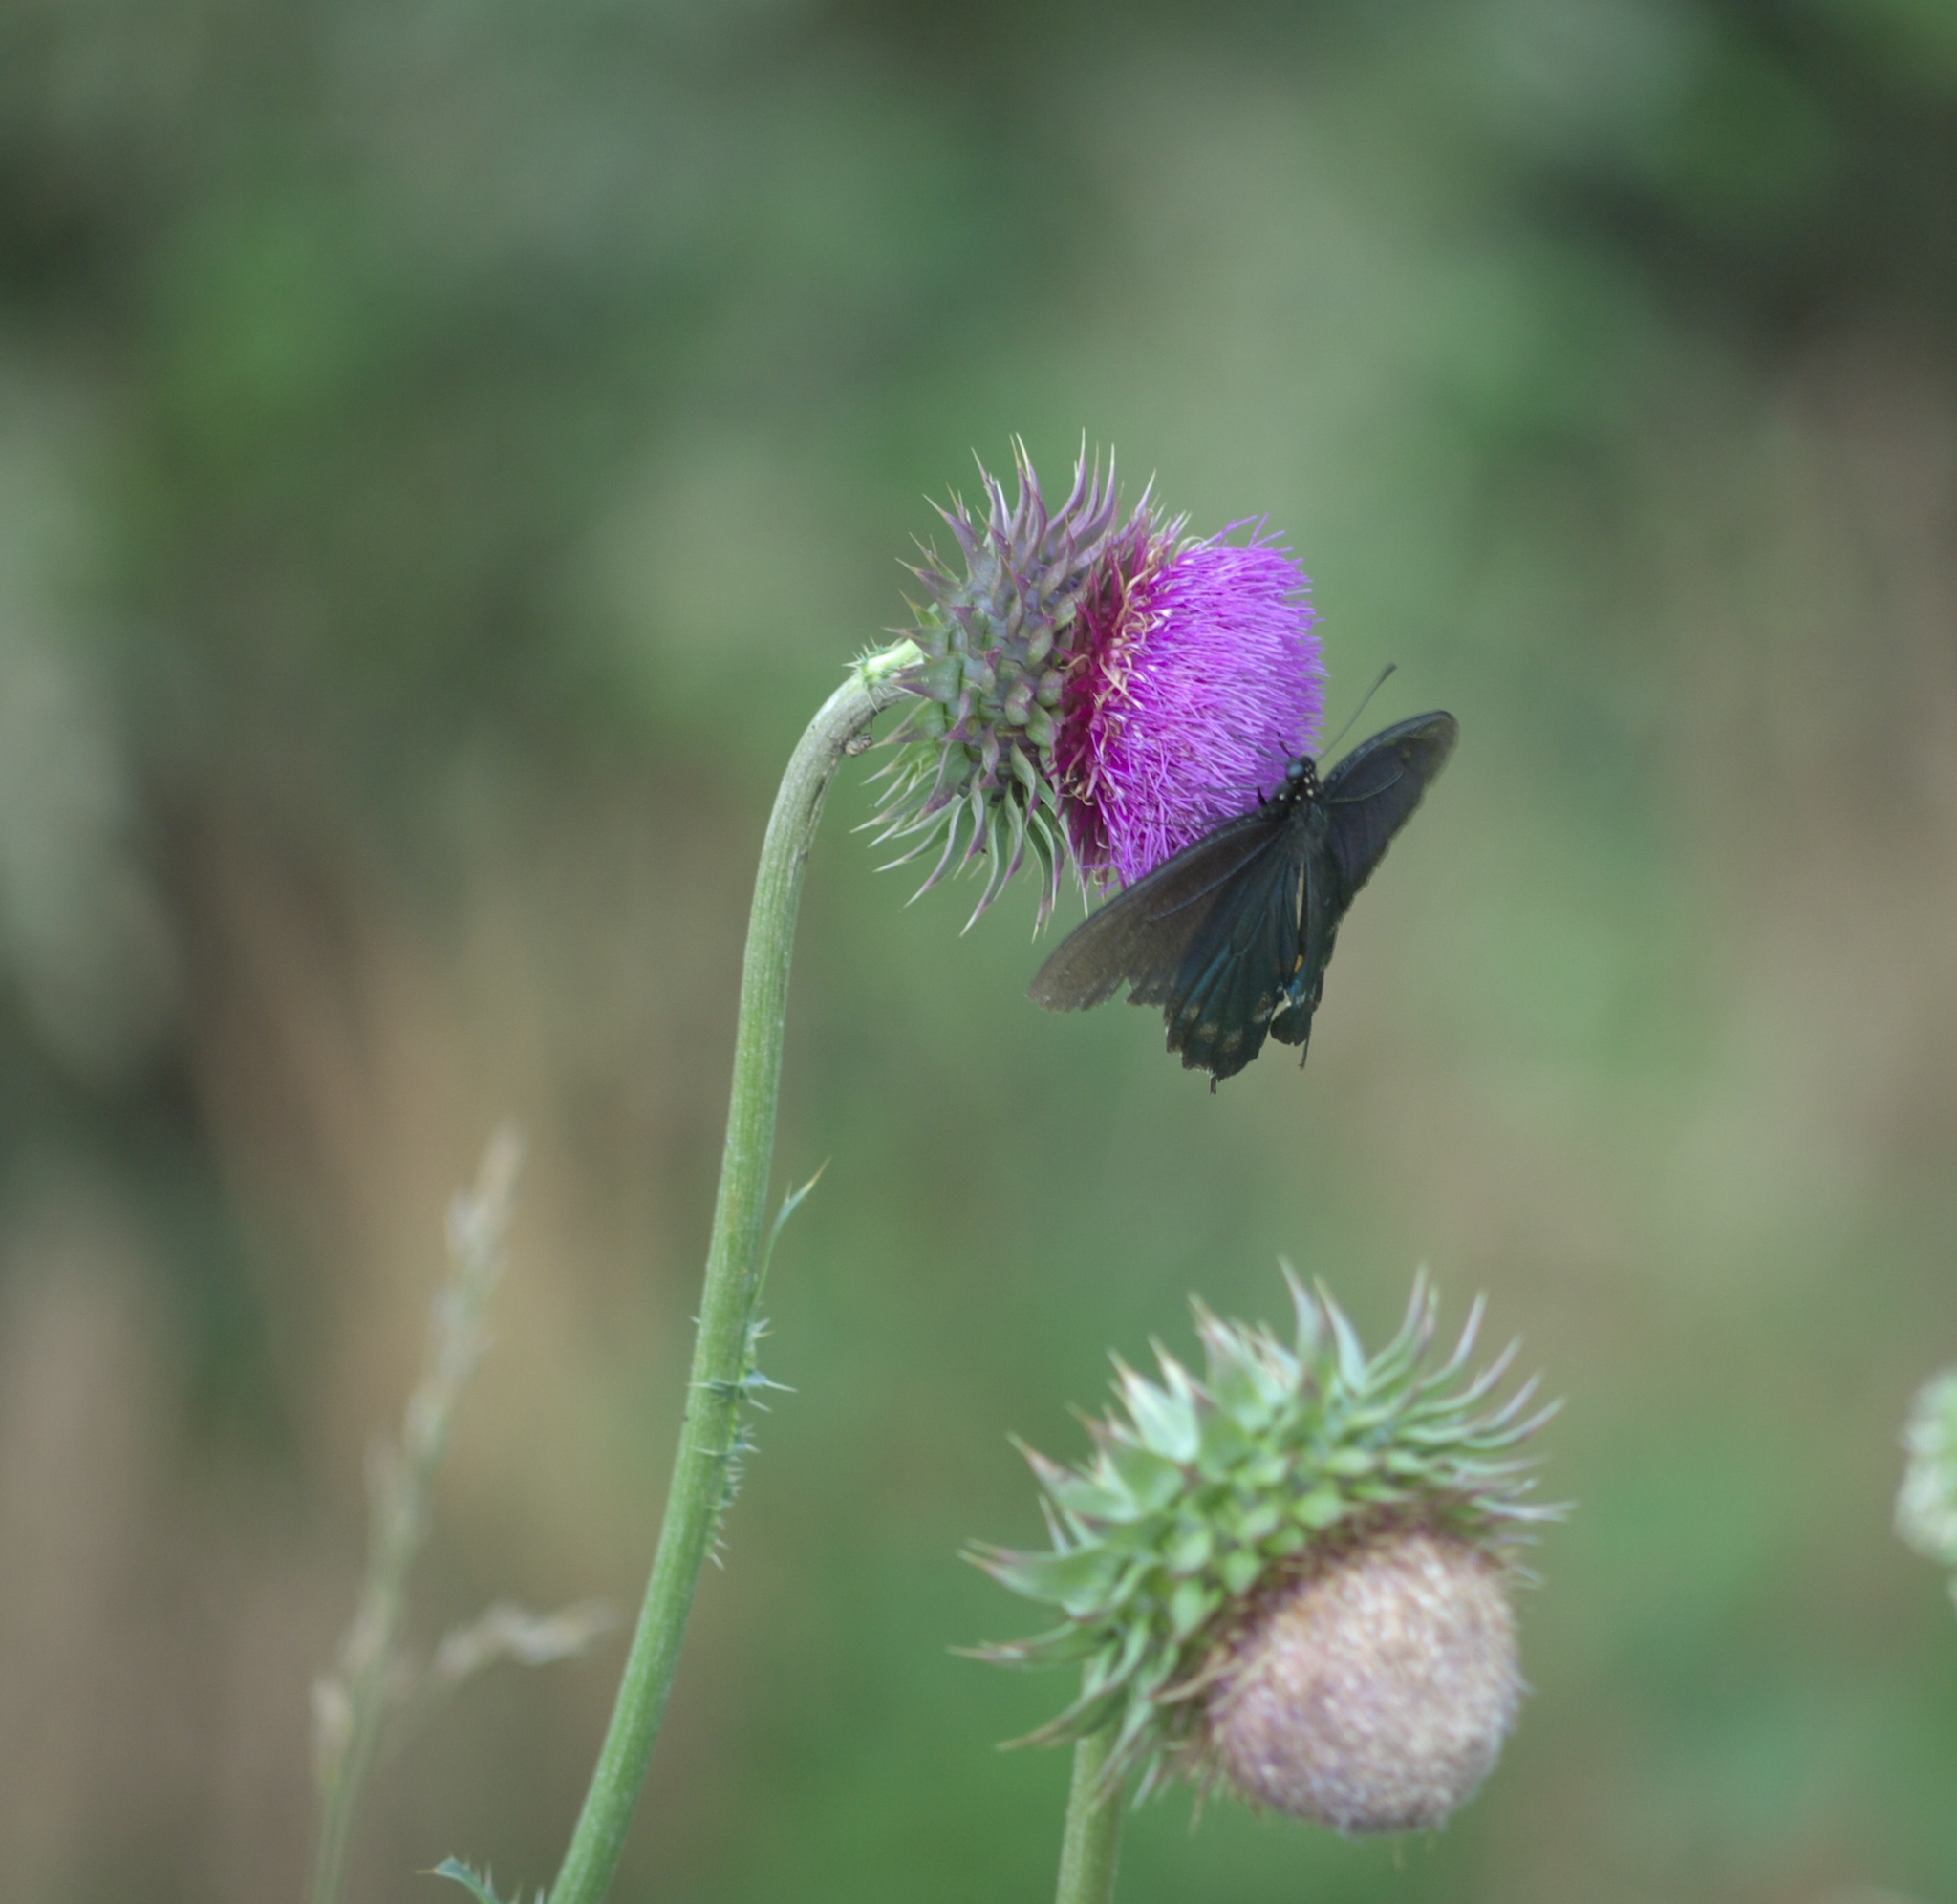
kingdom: Plantae
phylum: Tracheophyta
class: Magnoliopsida
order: Asterales
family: Asteraceae
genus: Carduus
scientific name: Carduus nutans
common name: Musk thistle
